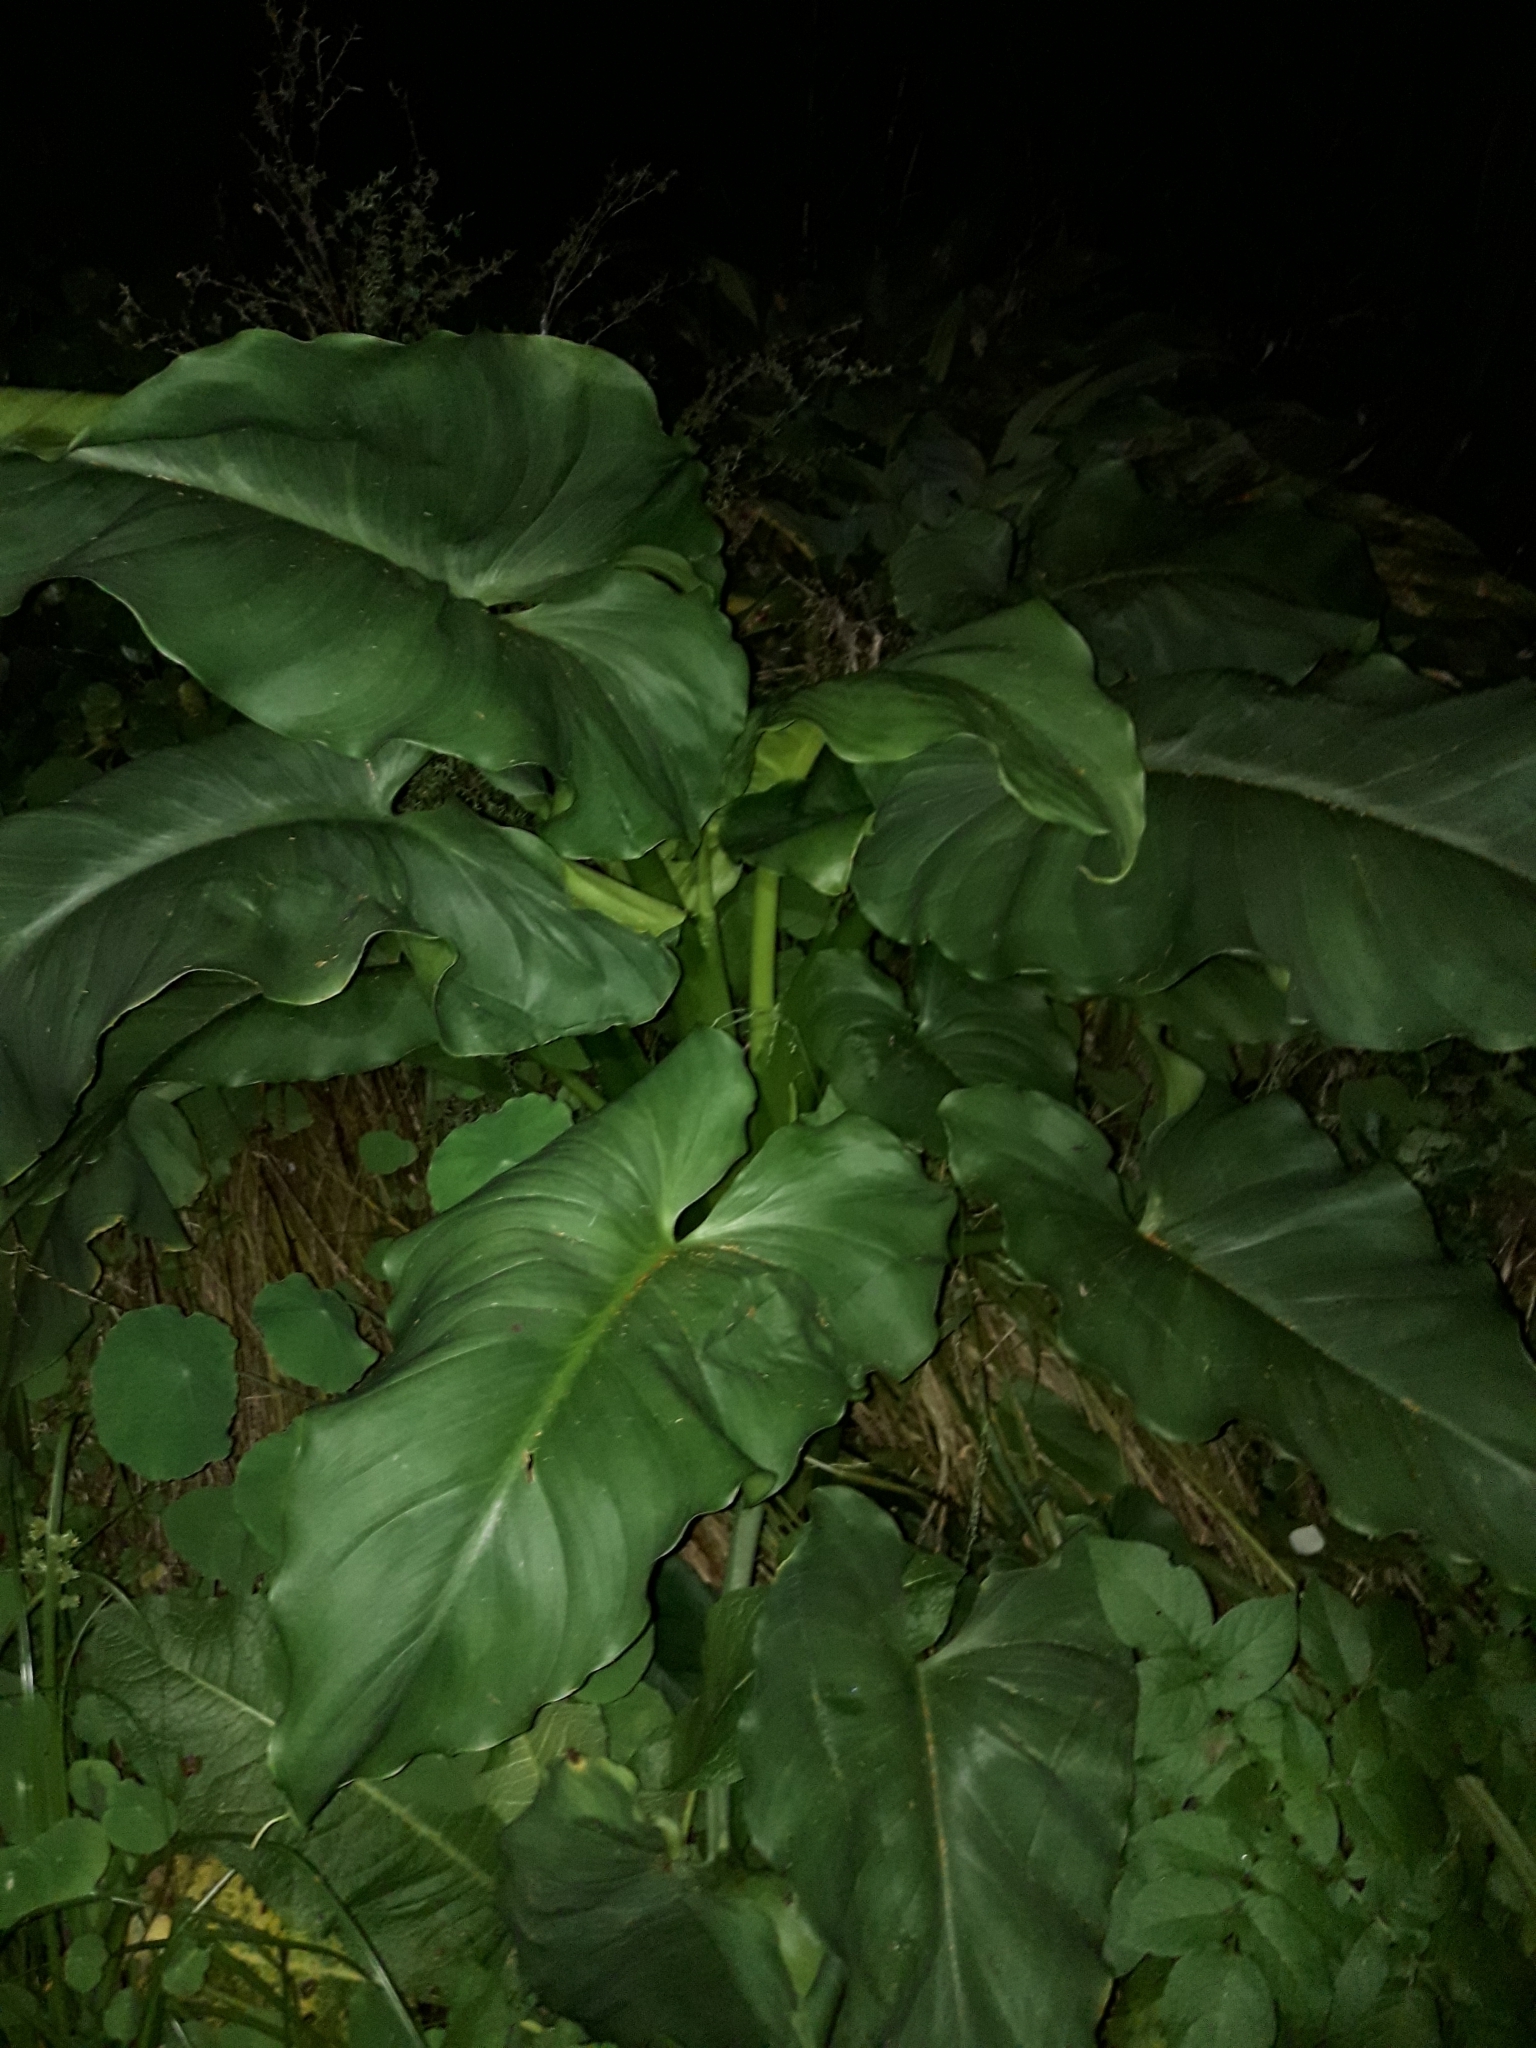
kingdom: Plantae
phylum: Tracheophyta
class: Liliopsida
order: Alismatales
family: Araceae
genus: Zantedeschia
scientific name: Zantedeschia aethiopica
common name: Altar-lily
